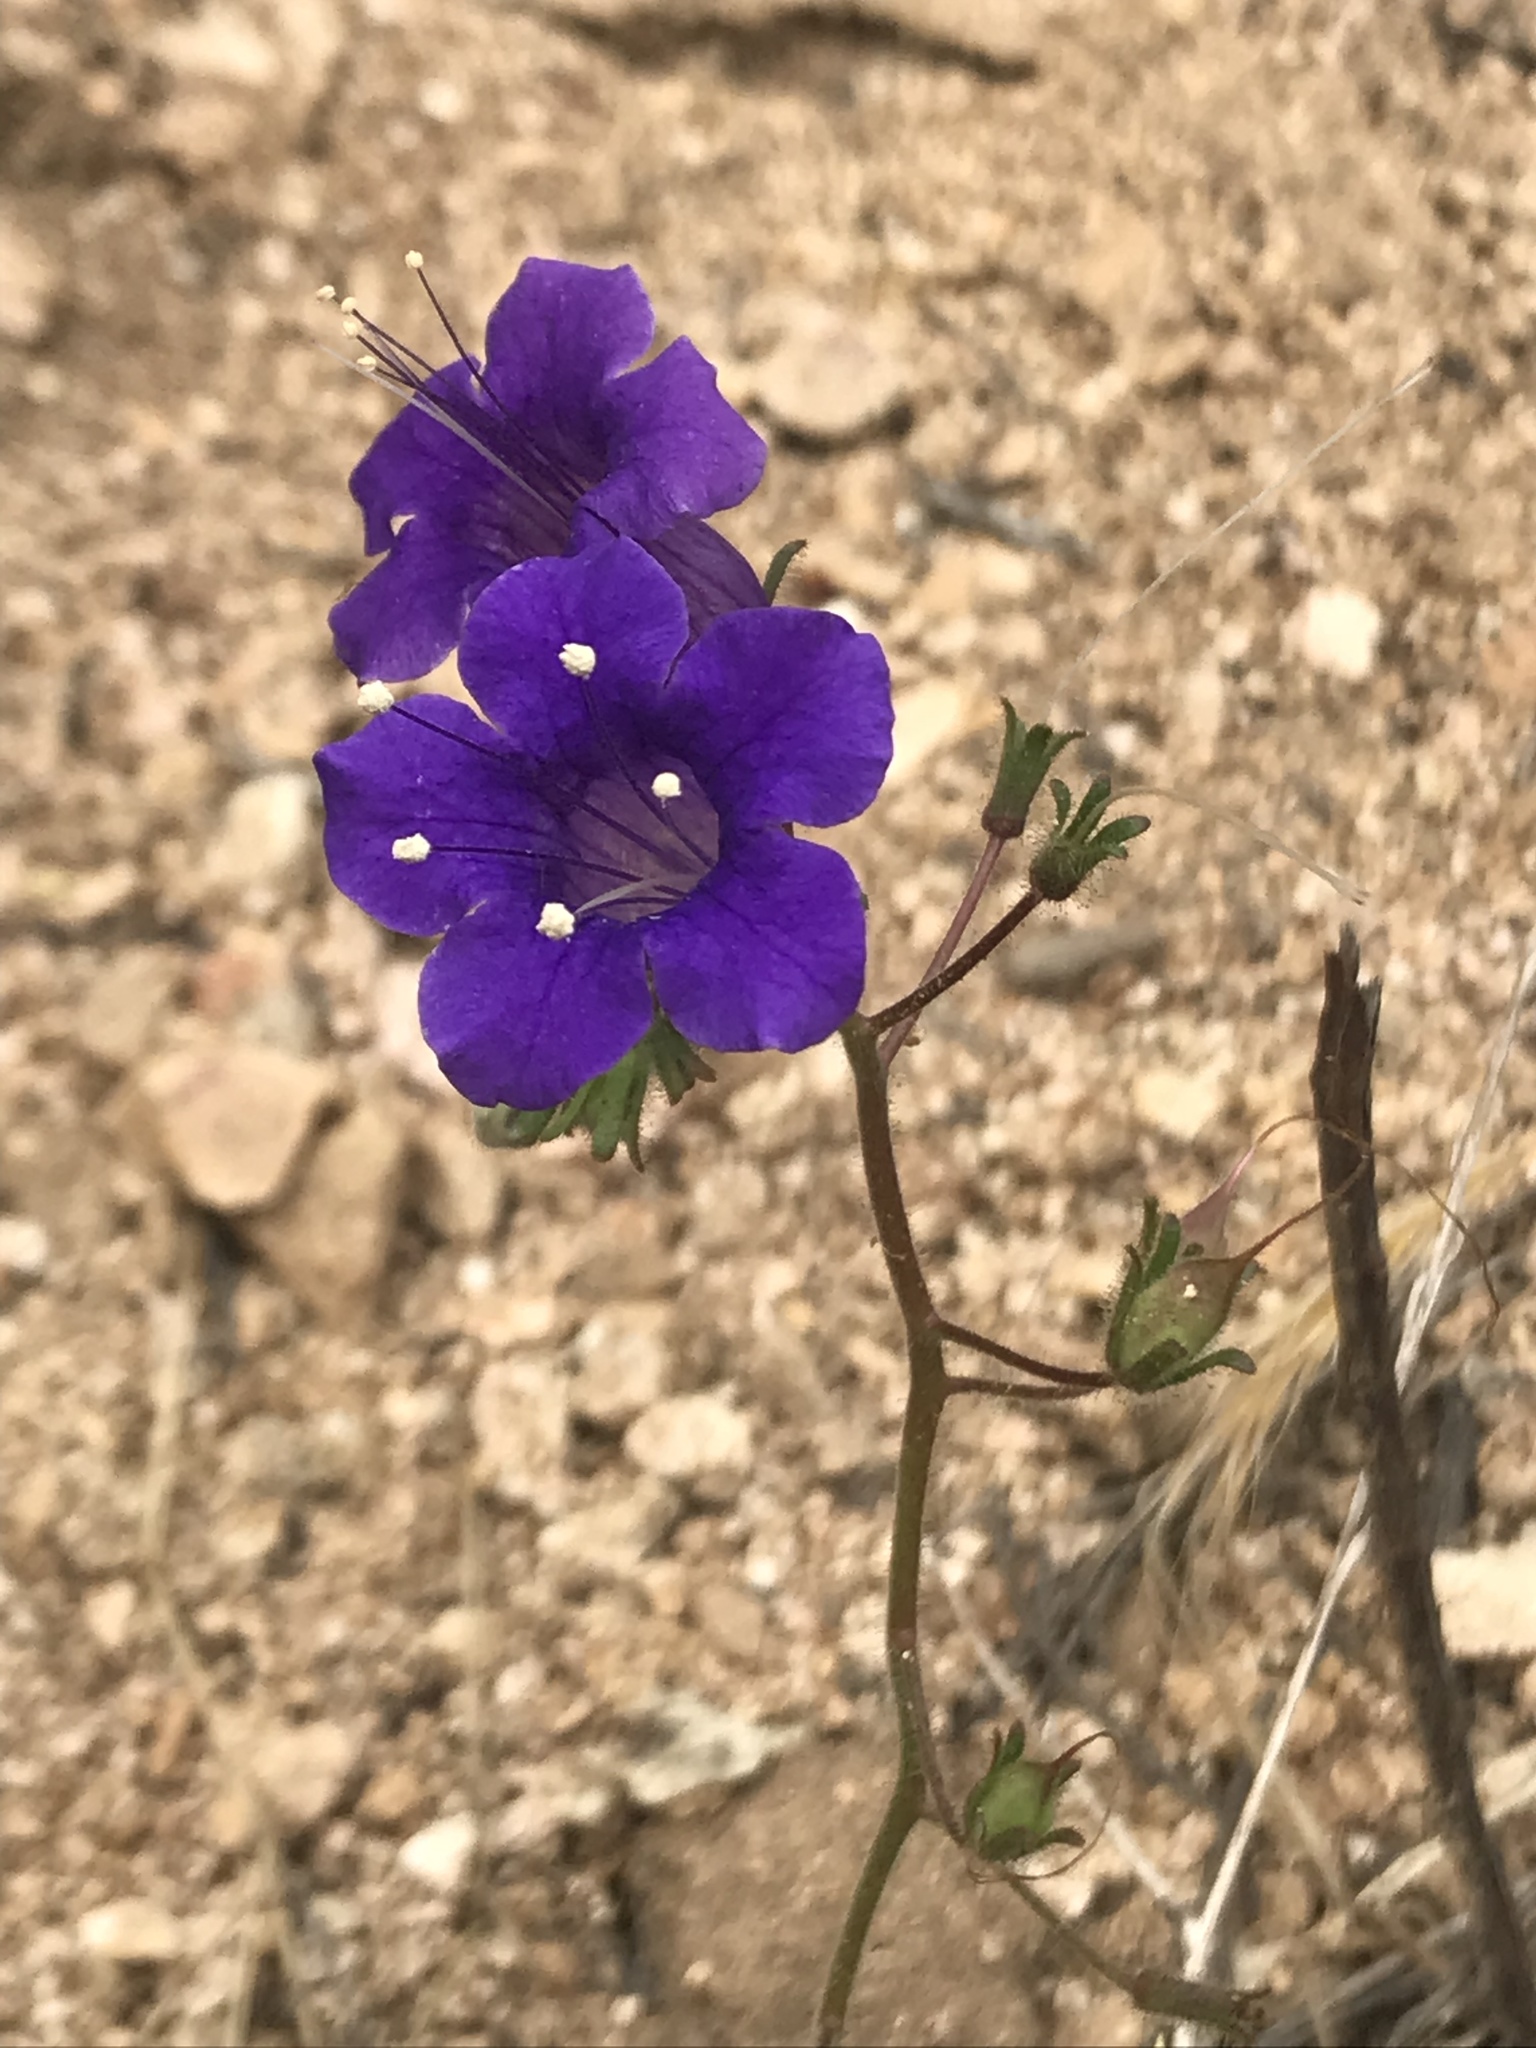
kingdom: Plantae
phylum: Tracheophyta
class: Magnoliopsida
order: Boraginales
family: Hydrophyllaceae
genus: Phacelia
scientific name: Phacelia minor
